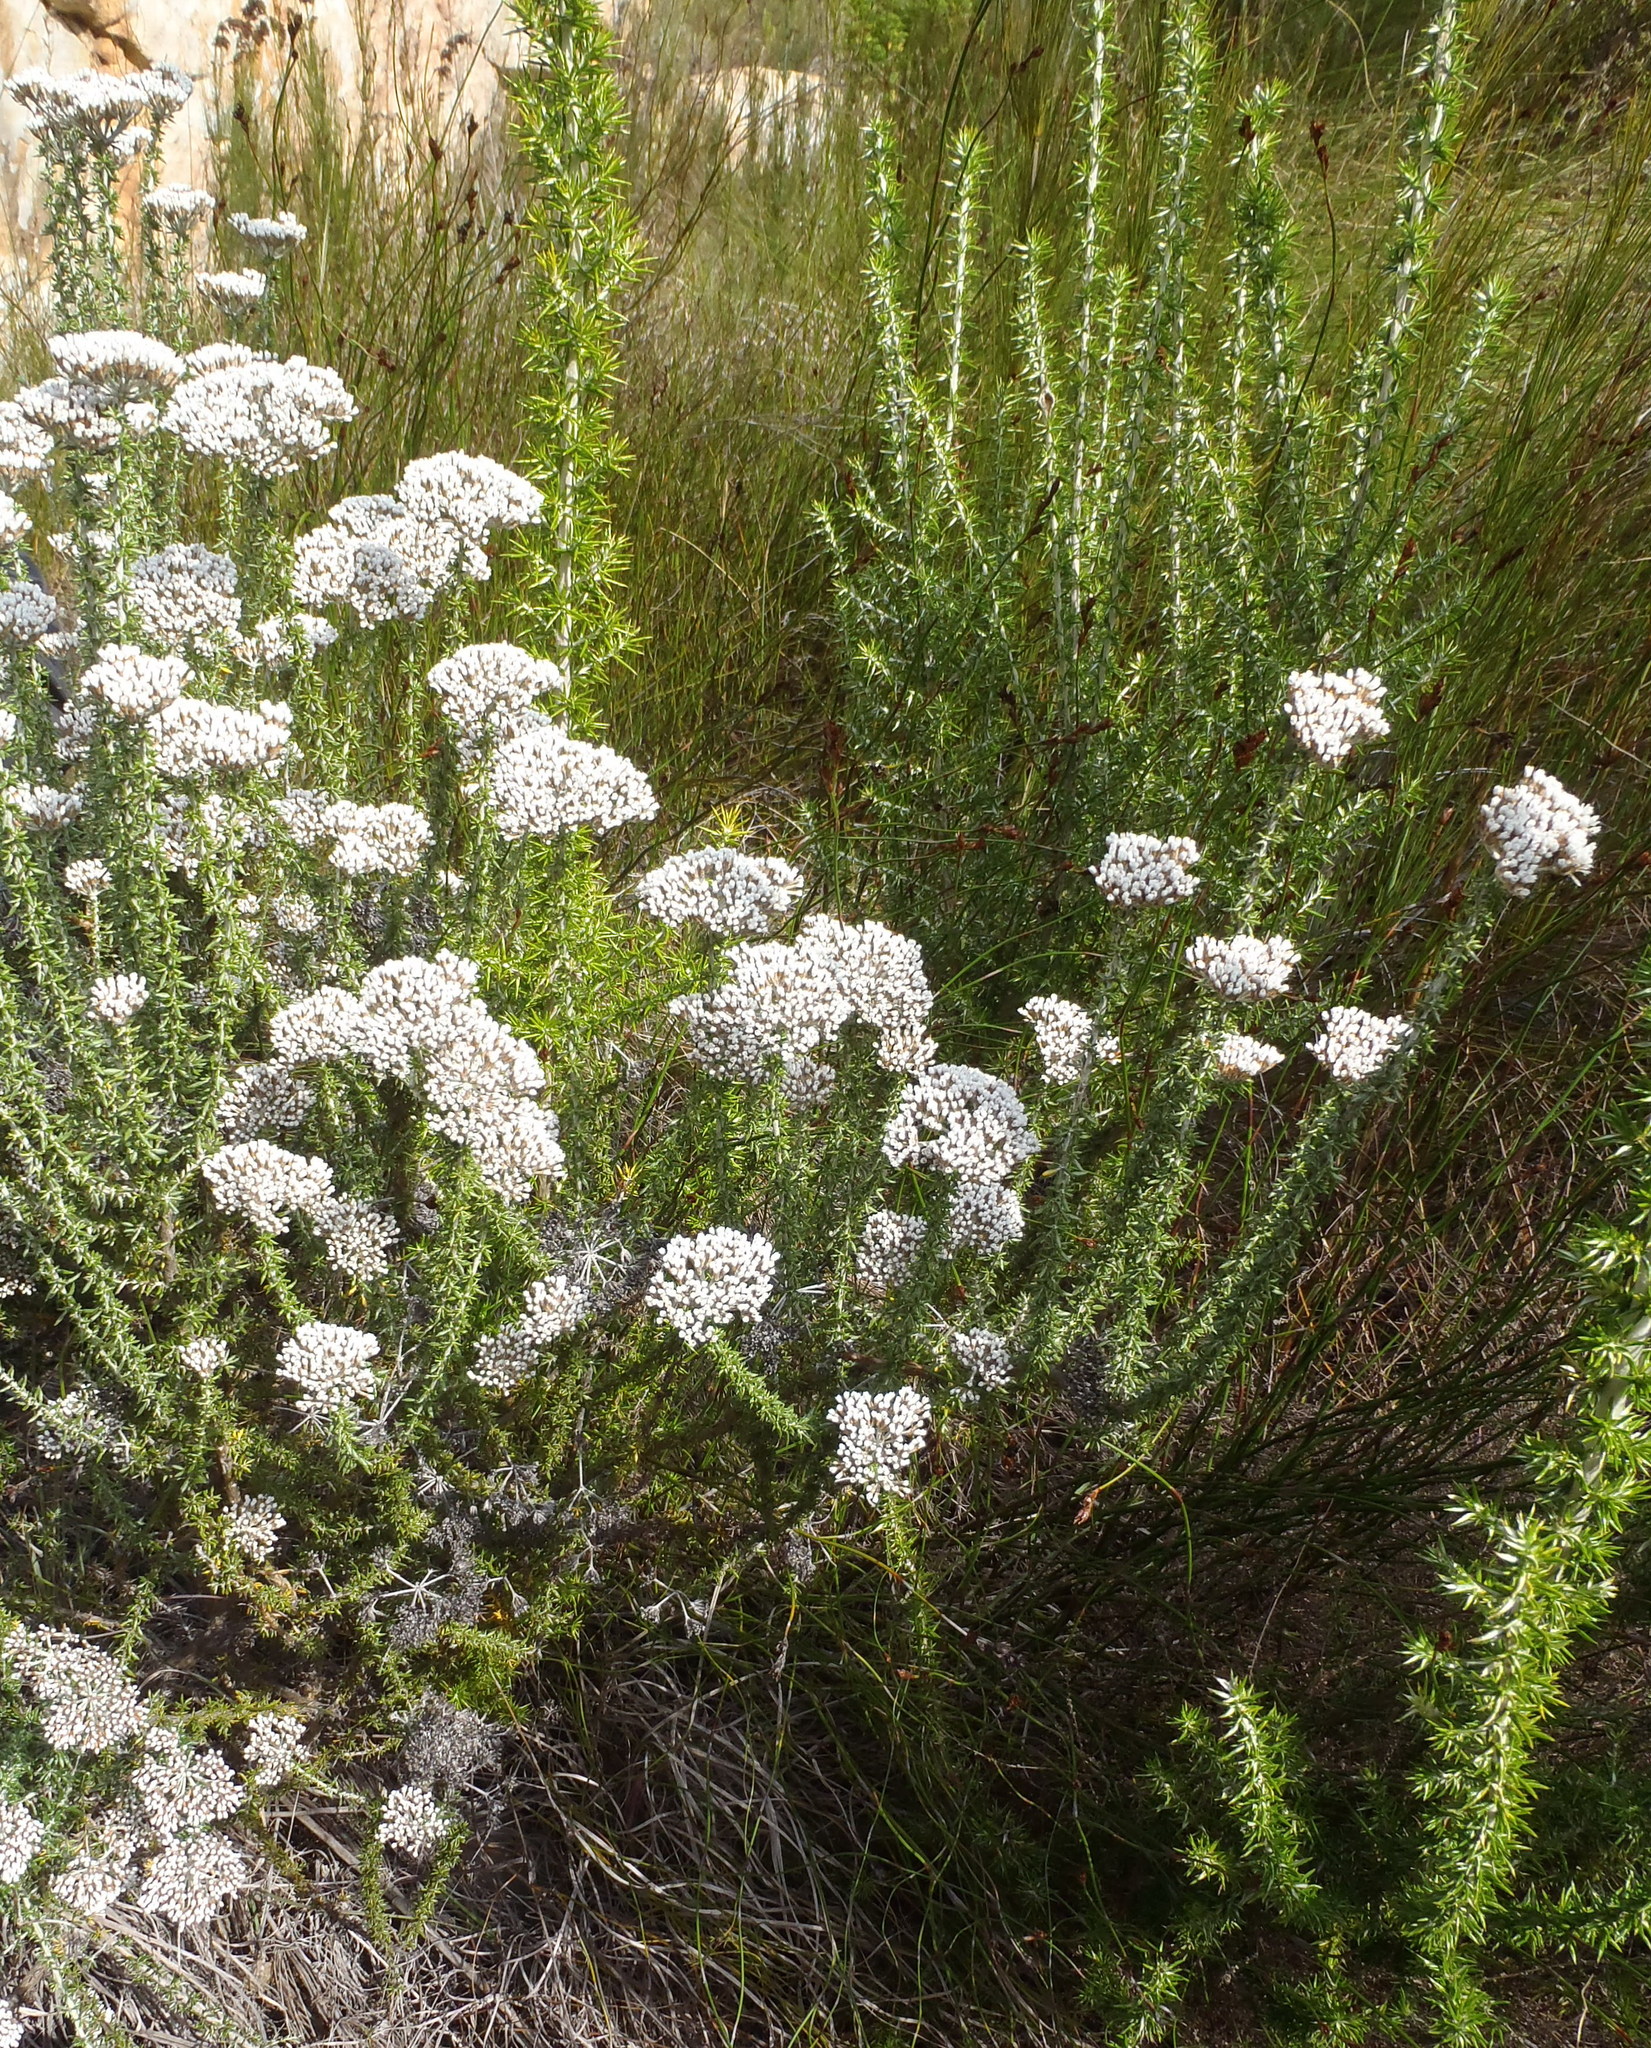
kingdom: Plantae
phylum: Tracheophyta
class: Magnoliopsida
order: Asterales
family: Asteraceae
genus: Metalasia
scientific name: Metalasia densa
